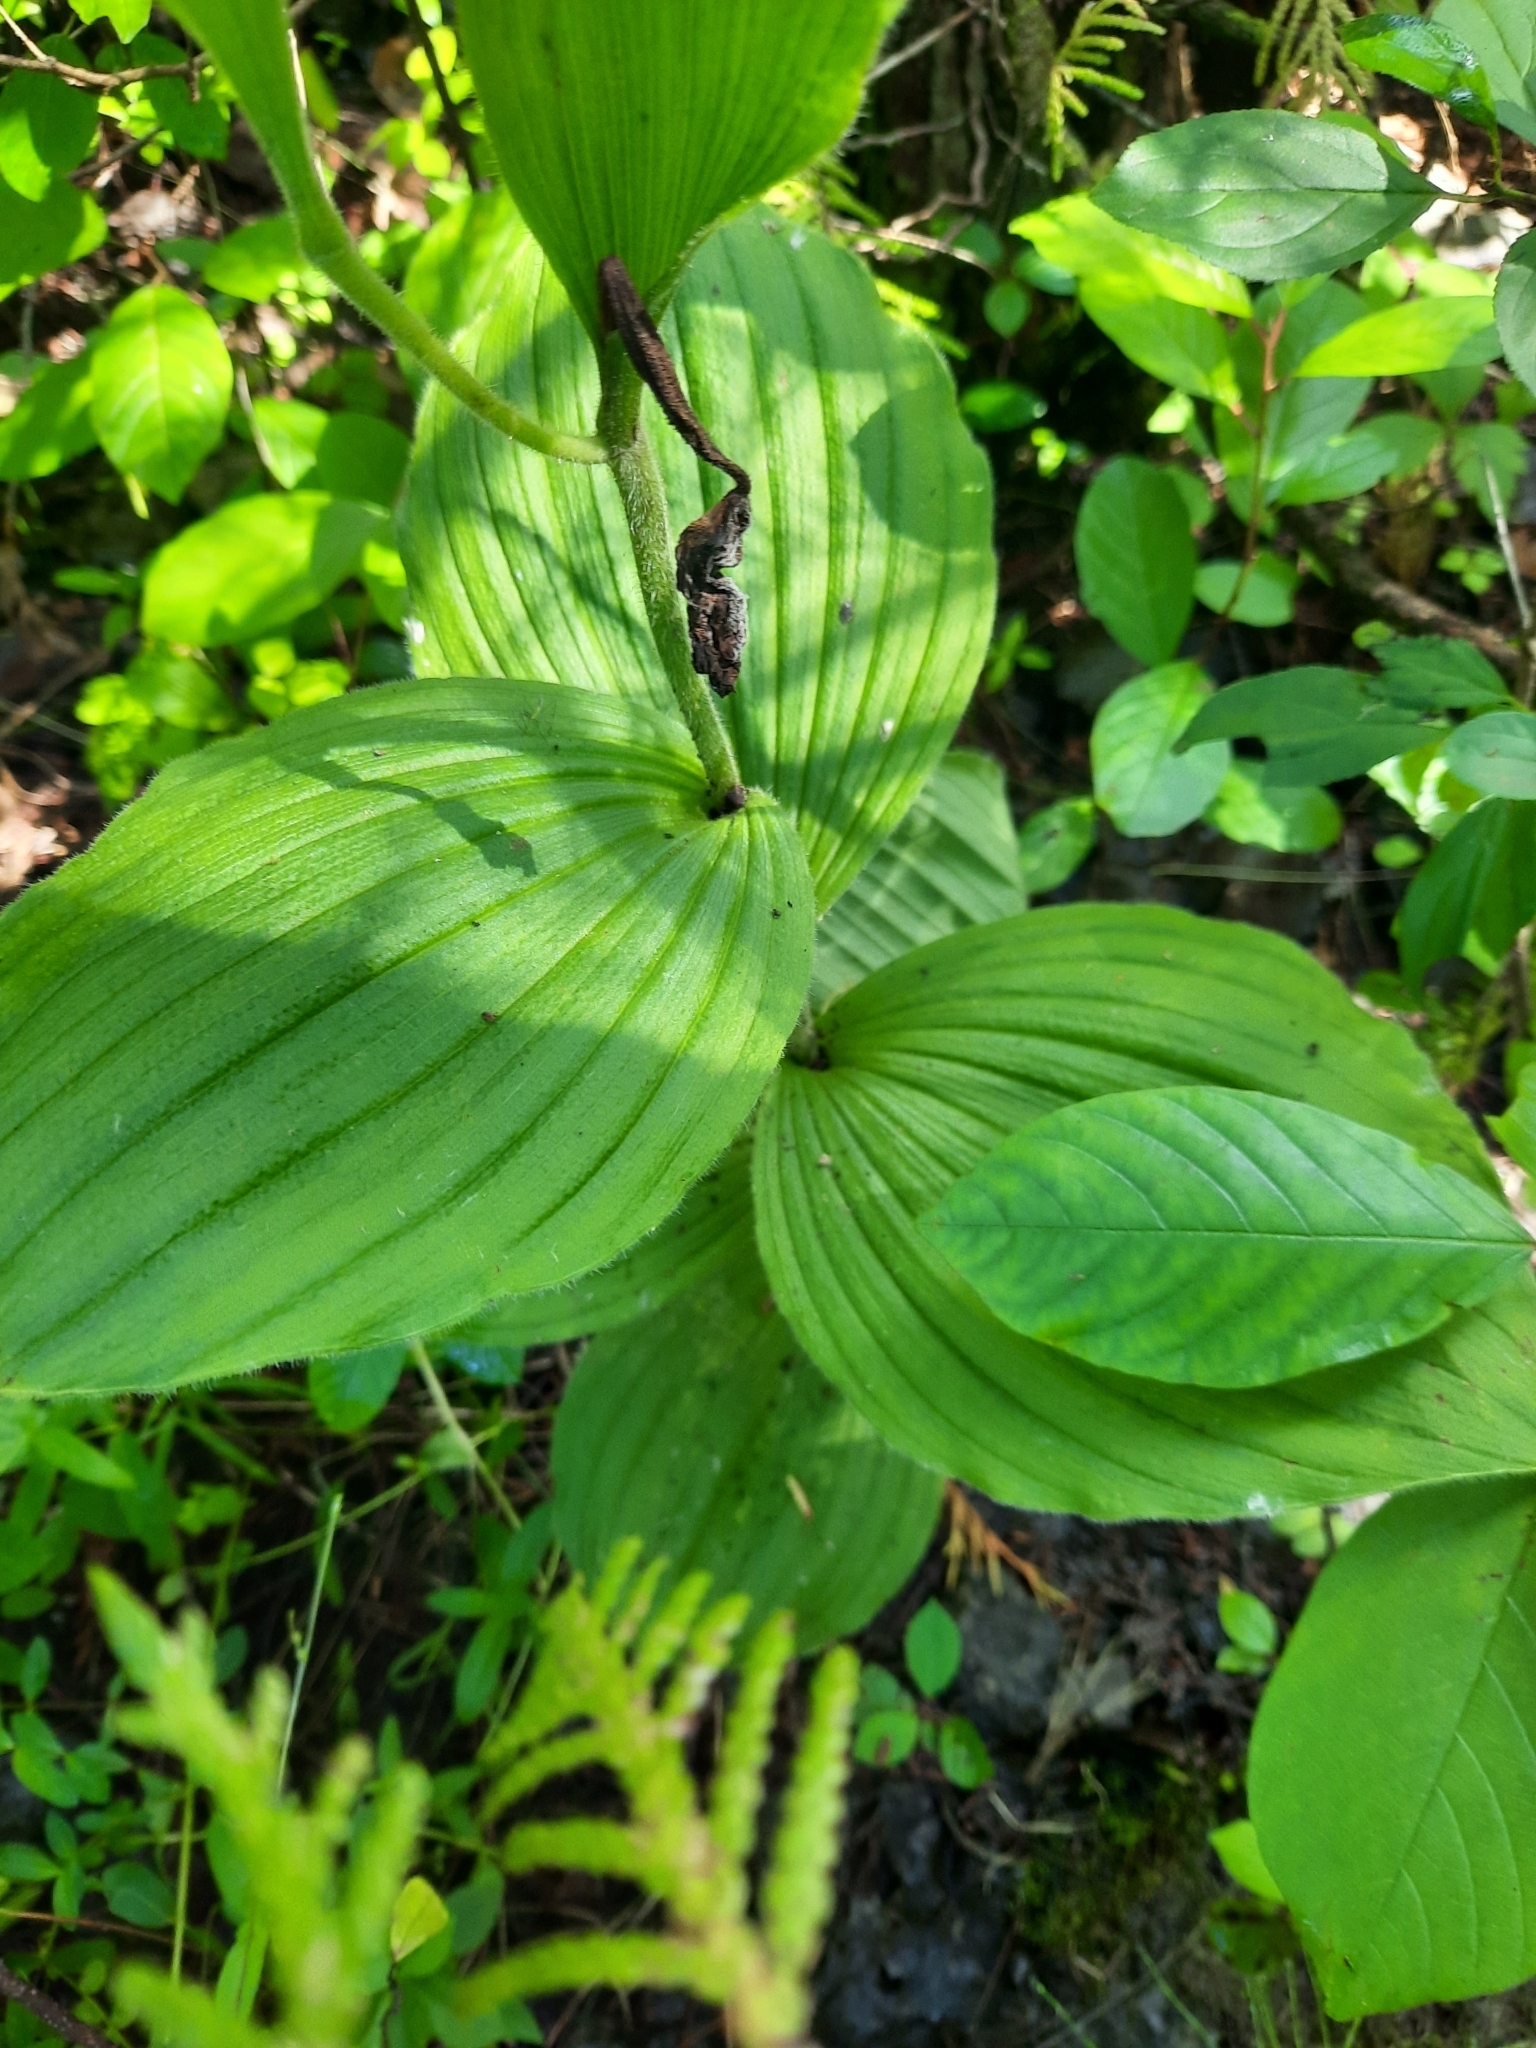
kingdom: Plantae
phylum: Tracheophyta
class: Liliopsida
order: Asparagales
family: Orchidaceae
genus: Cypripedium
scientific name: Cypripedium reginae
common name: Queen lady's-slipper
